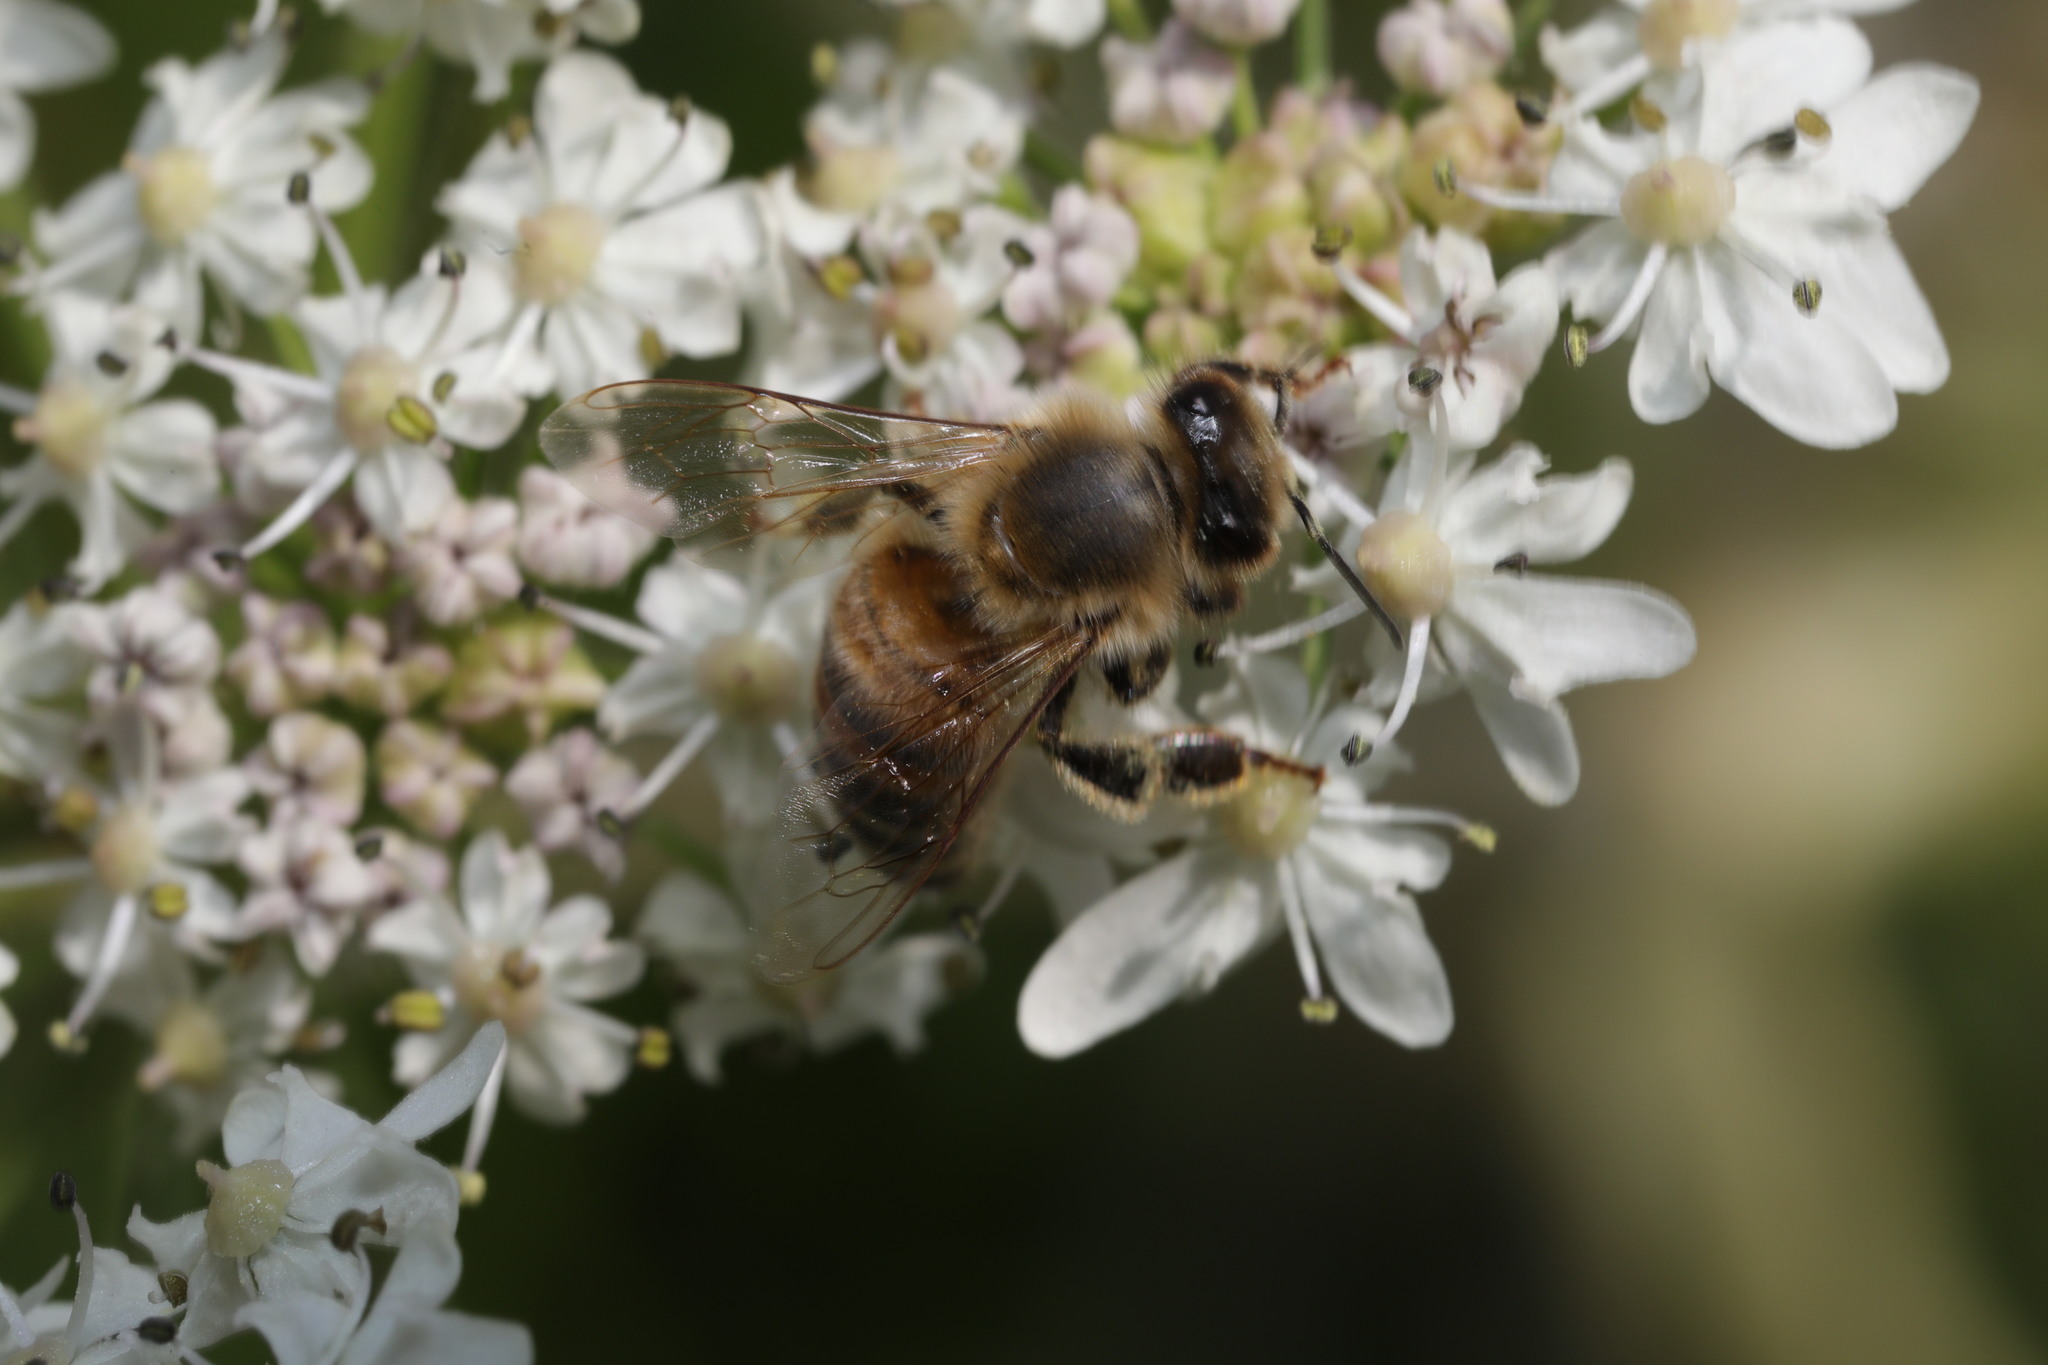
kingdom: Animalia
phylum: Arthropoda
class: Insecta
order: Hymenoptera
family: Apidae
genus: Apis
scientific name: Apis mellifera
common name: Honey bee
